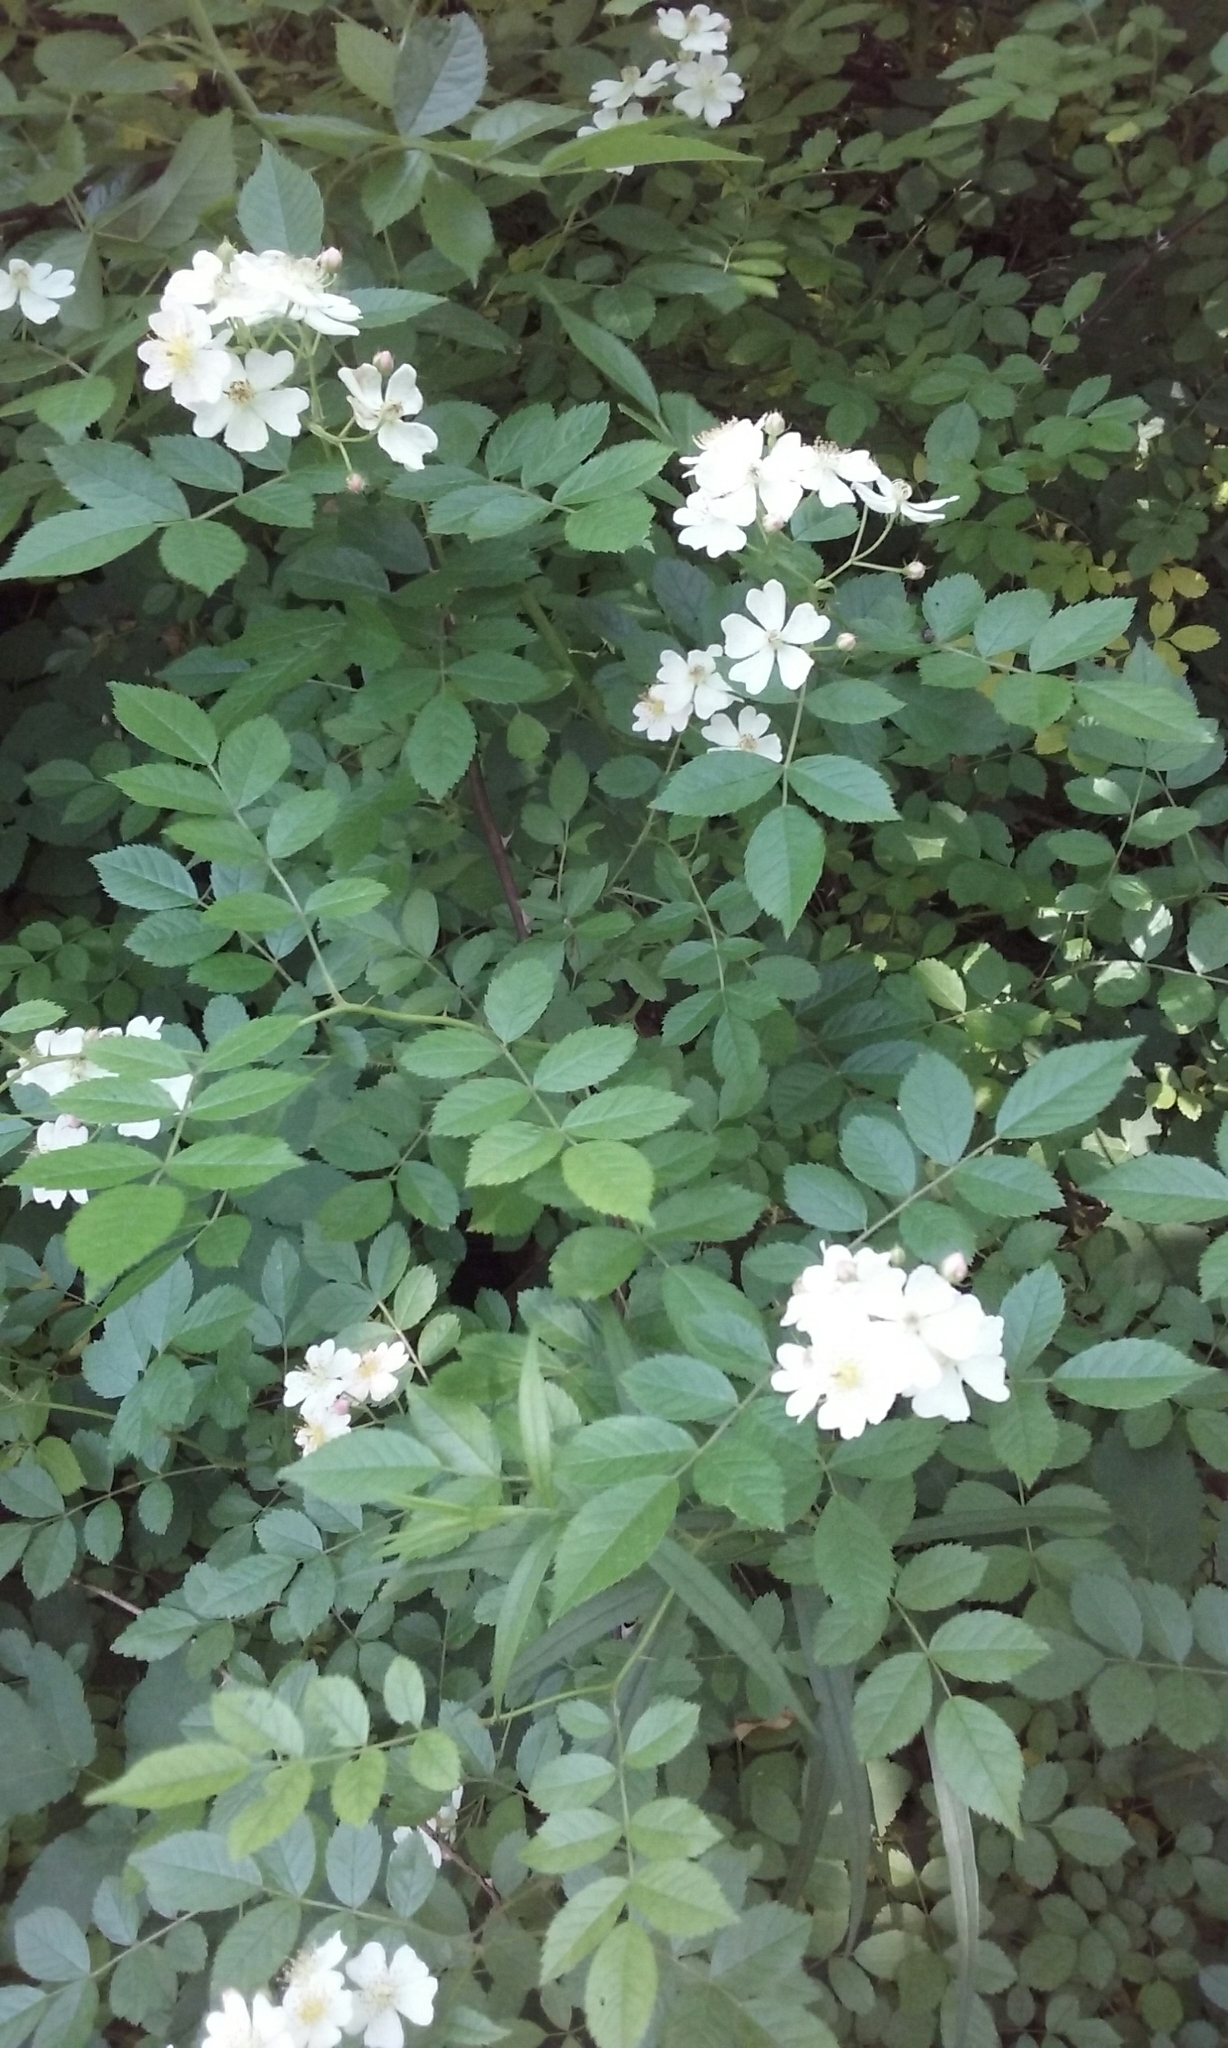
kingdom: Plantae
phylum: Tracheophyta
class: Magnoliopsida
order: Rosales
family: Rosaceae
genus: Rosa
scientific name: Rosa multiflora
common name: Multiflora rose
